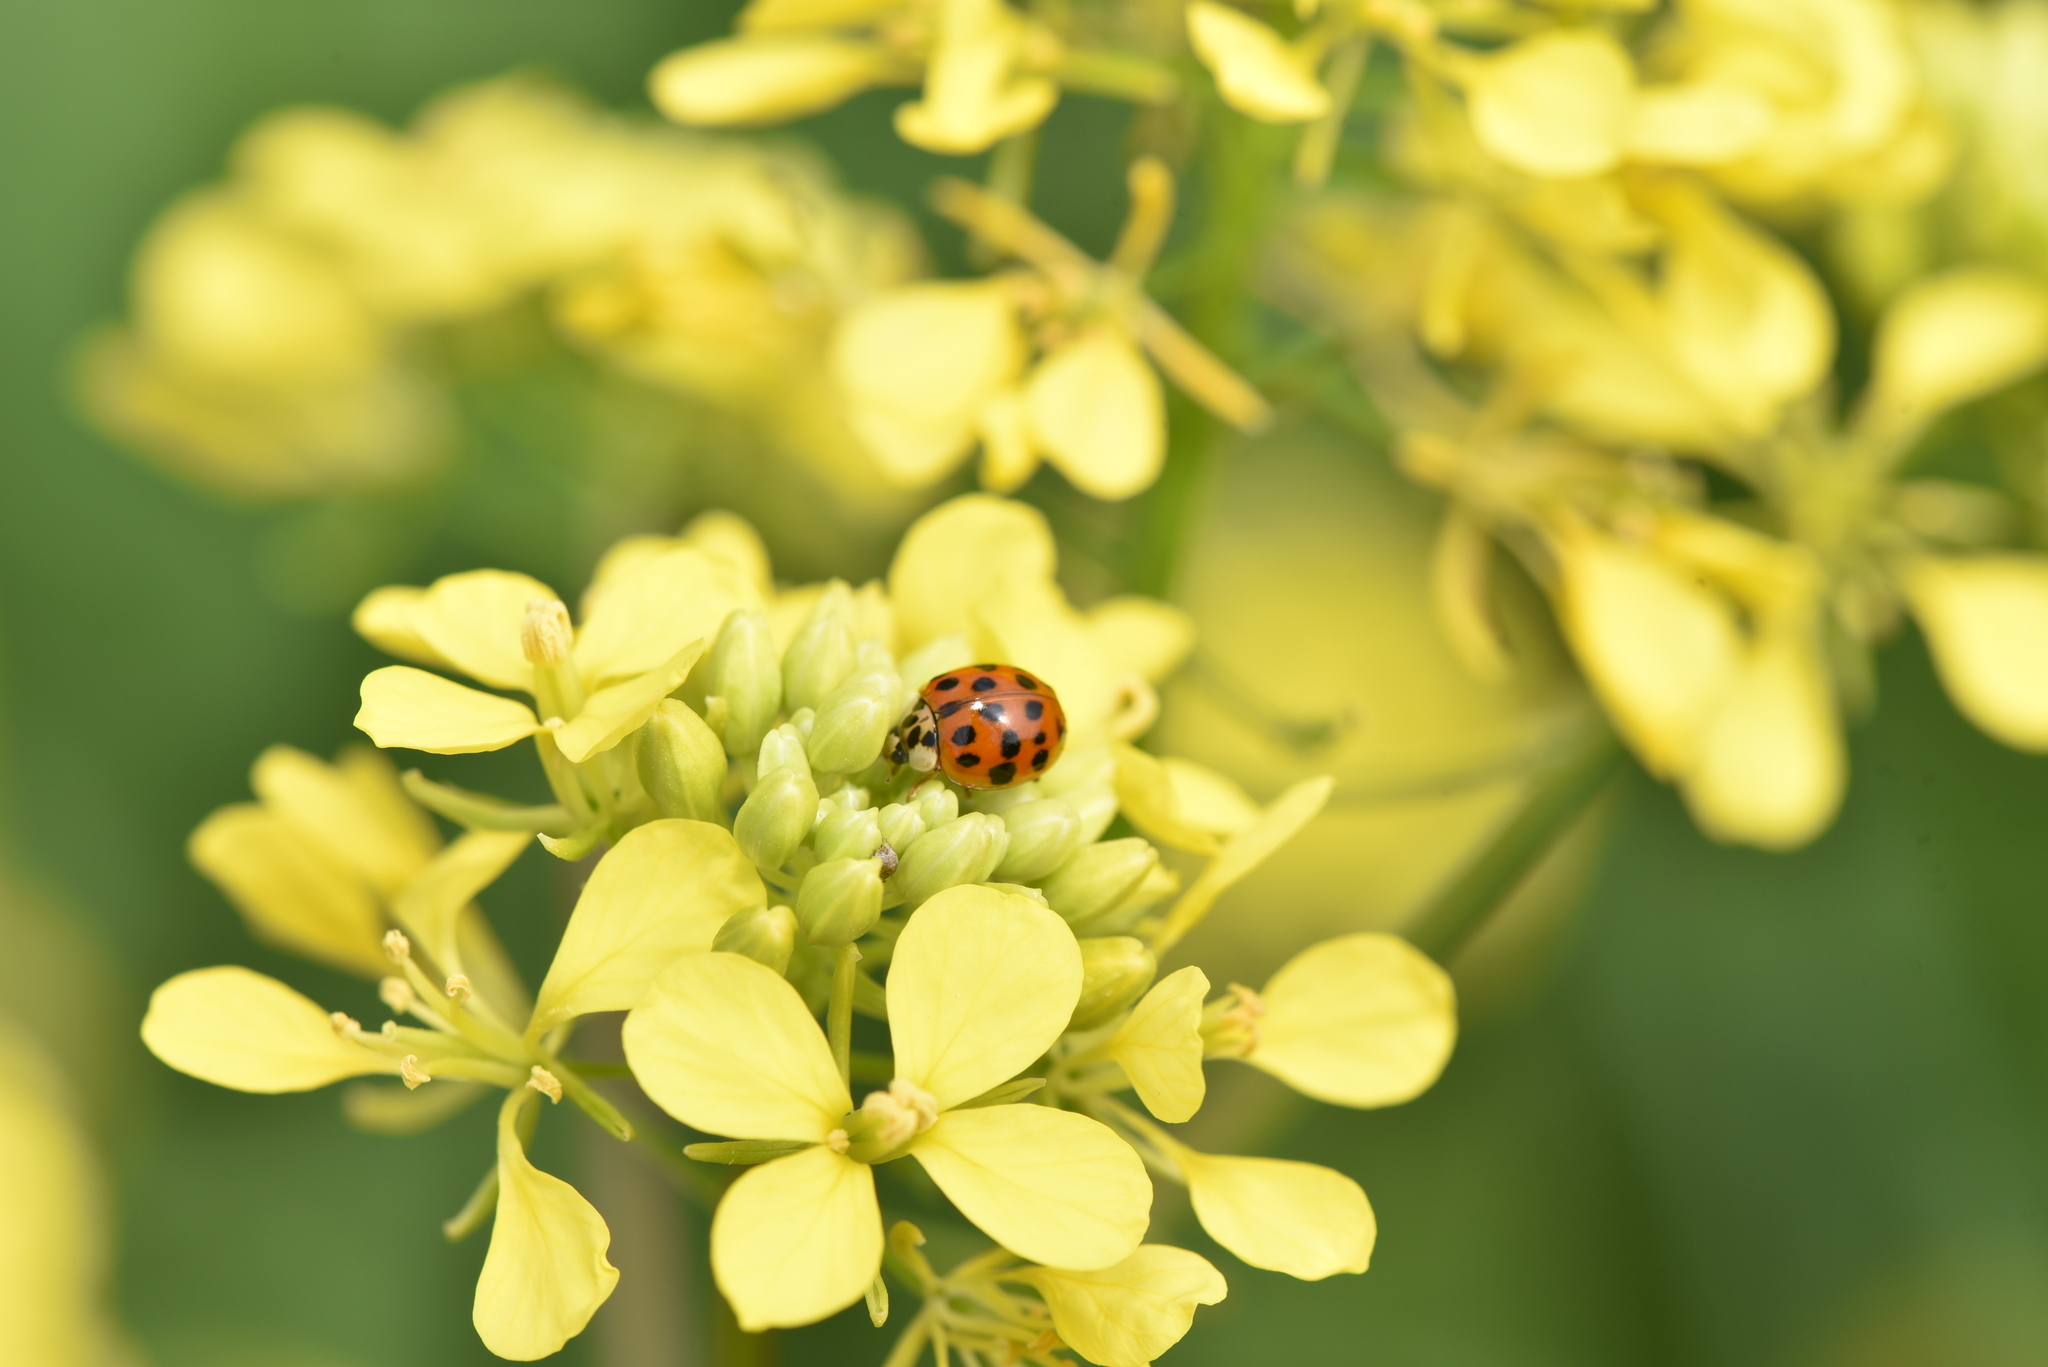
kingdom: Animalia
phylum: Arthropoda
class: Insecta
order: Coleoptera
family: Coccinellidae
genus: Harmonia
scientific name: Harmonia axyridis
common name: Harlequin ladybird
